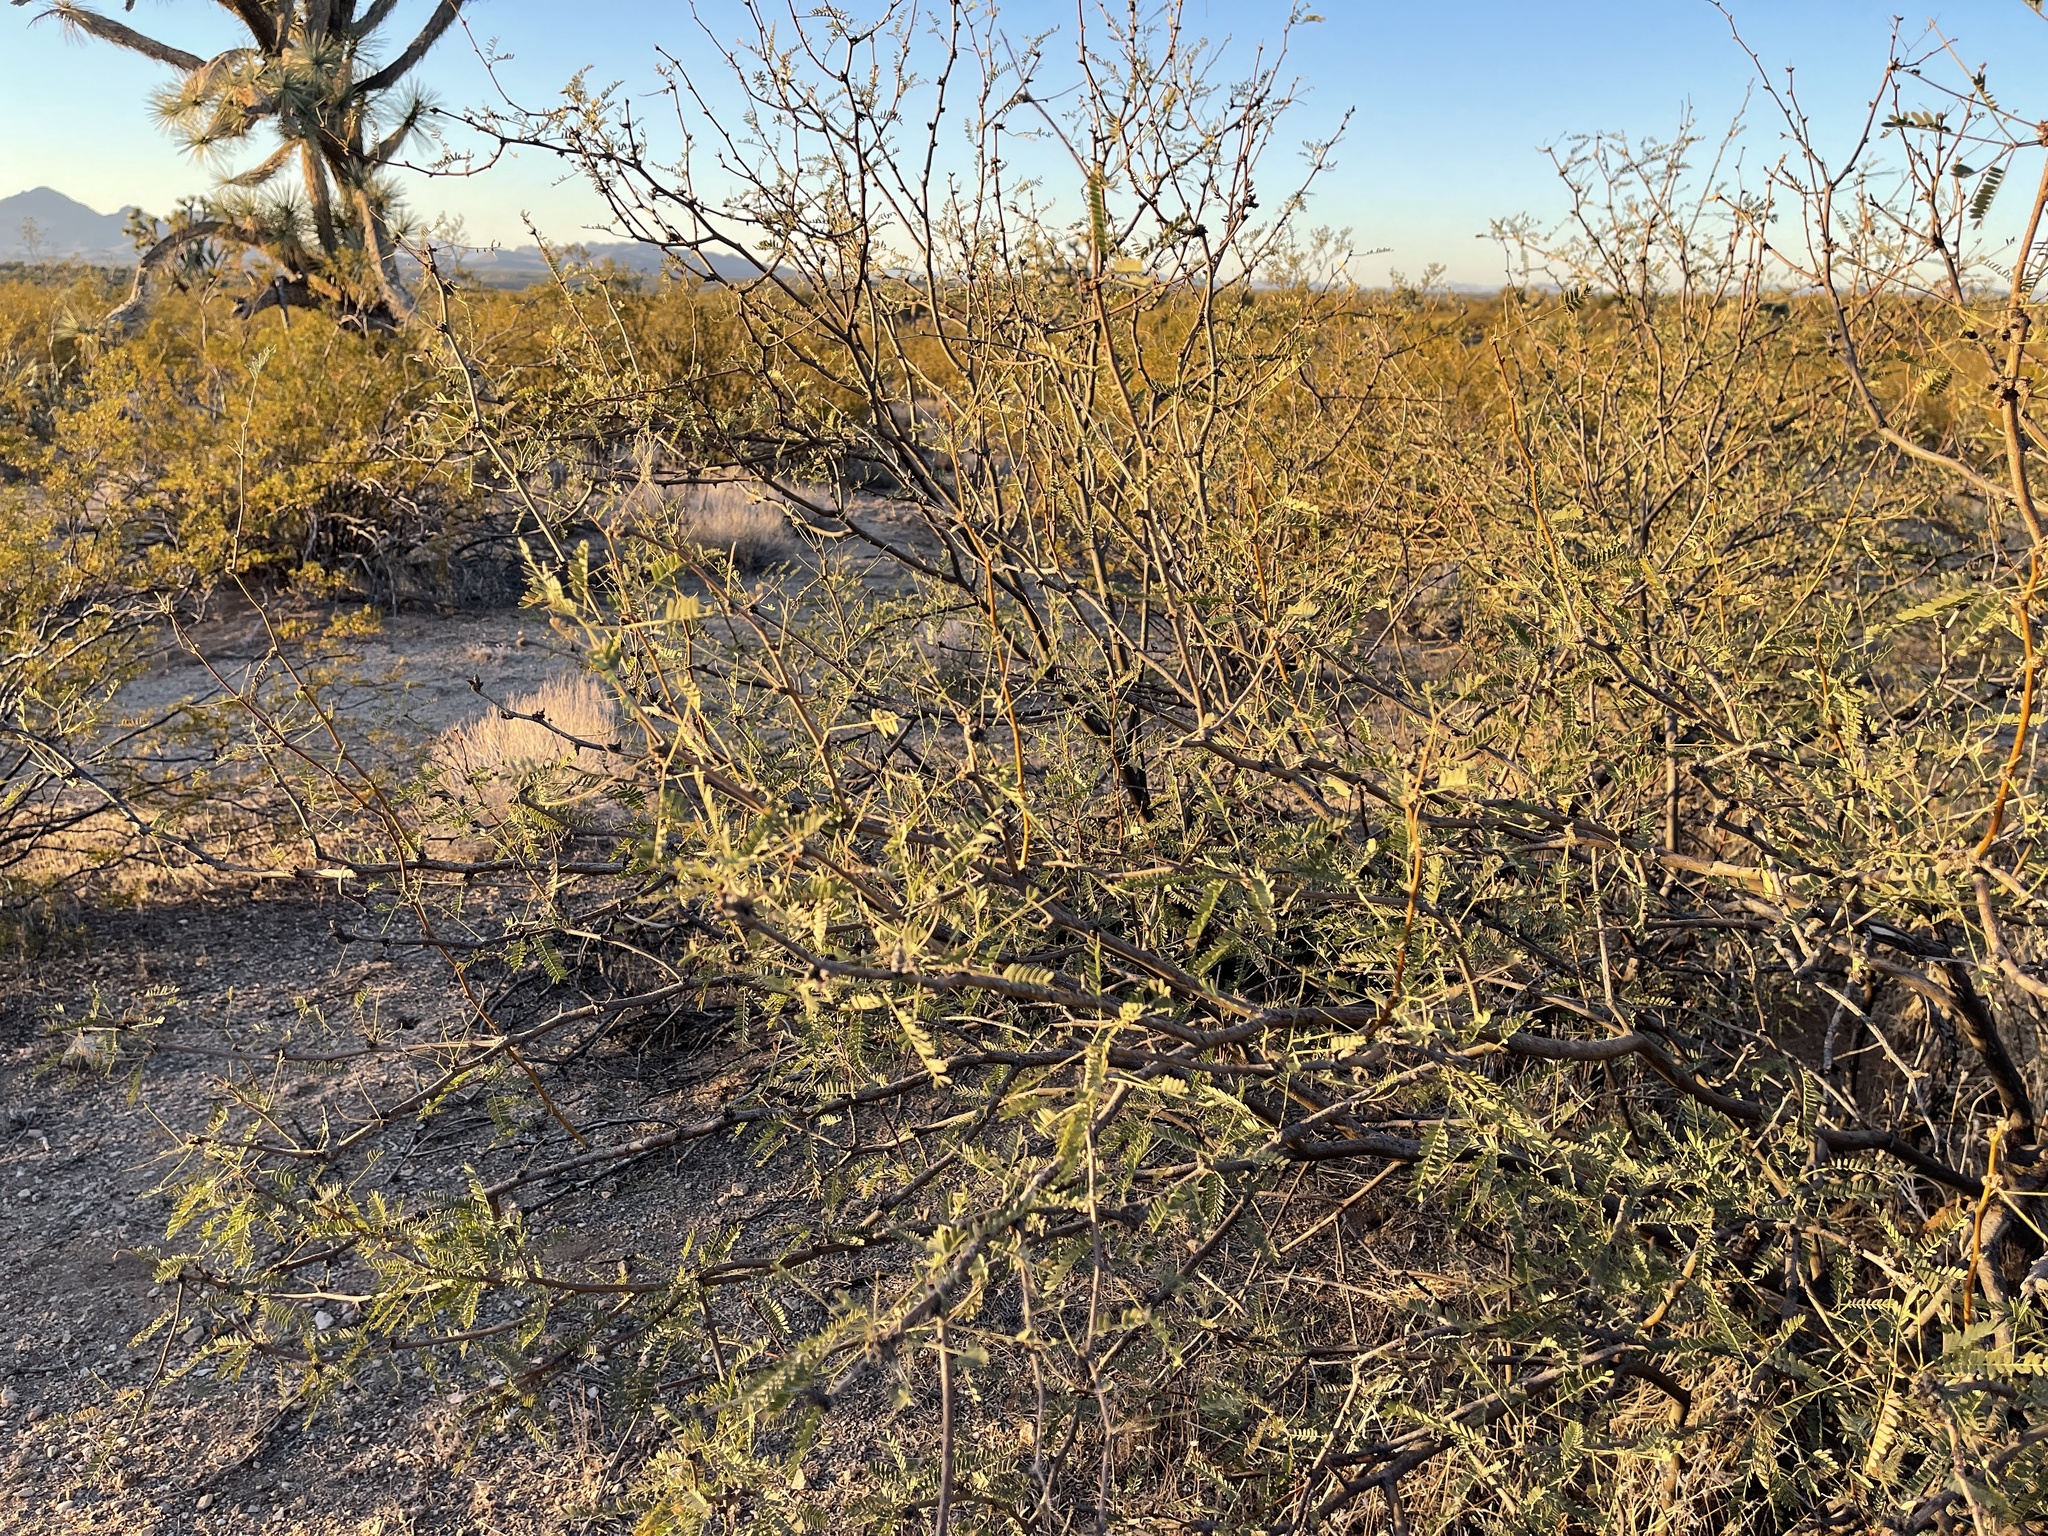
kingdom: Plantae
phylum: Tracheophyta
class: Magnoliopsida
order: Fabales
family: Fabaceae
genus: Prosopis
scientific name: Prosopis velutina
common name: Velvet mesquite
